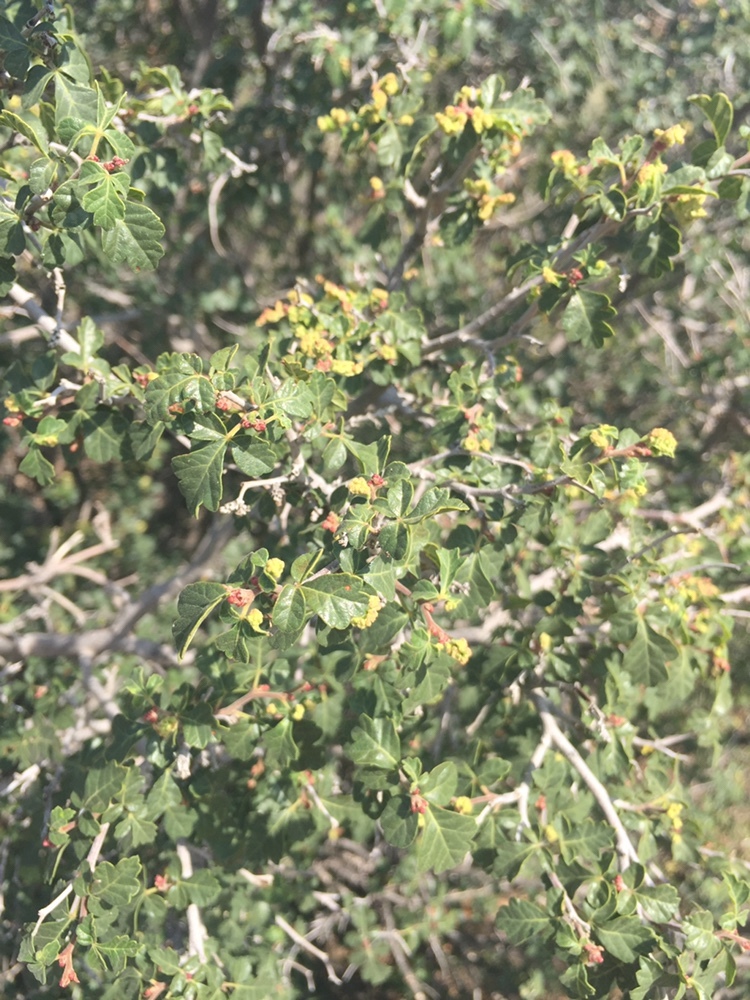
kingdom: Plantae
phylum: Tracheophyta
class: Magnoliopsida
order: Sapindales
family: Anacardiaceae
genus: Rhus
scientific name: Rhus trilobata
